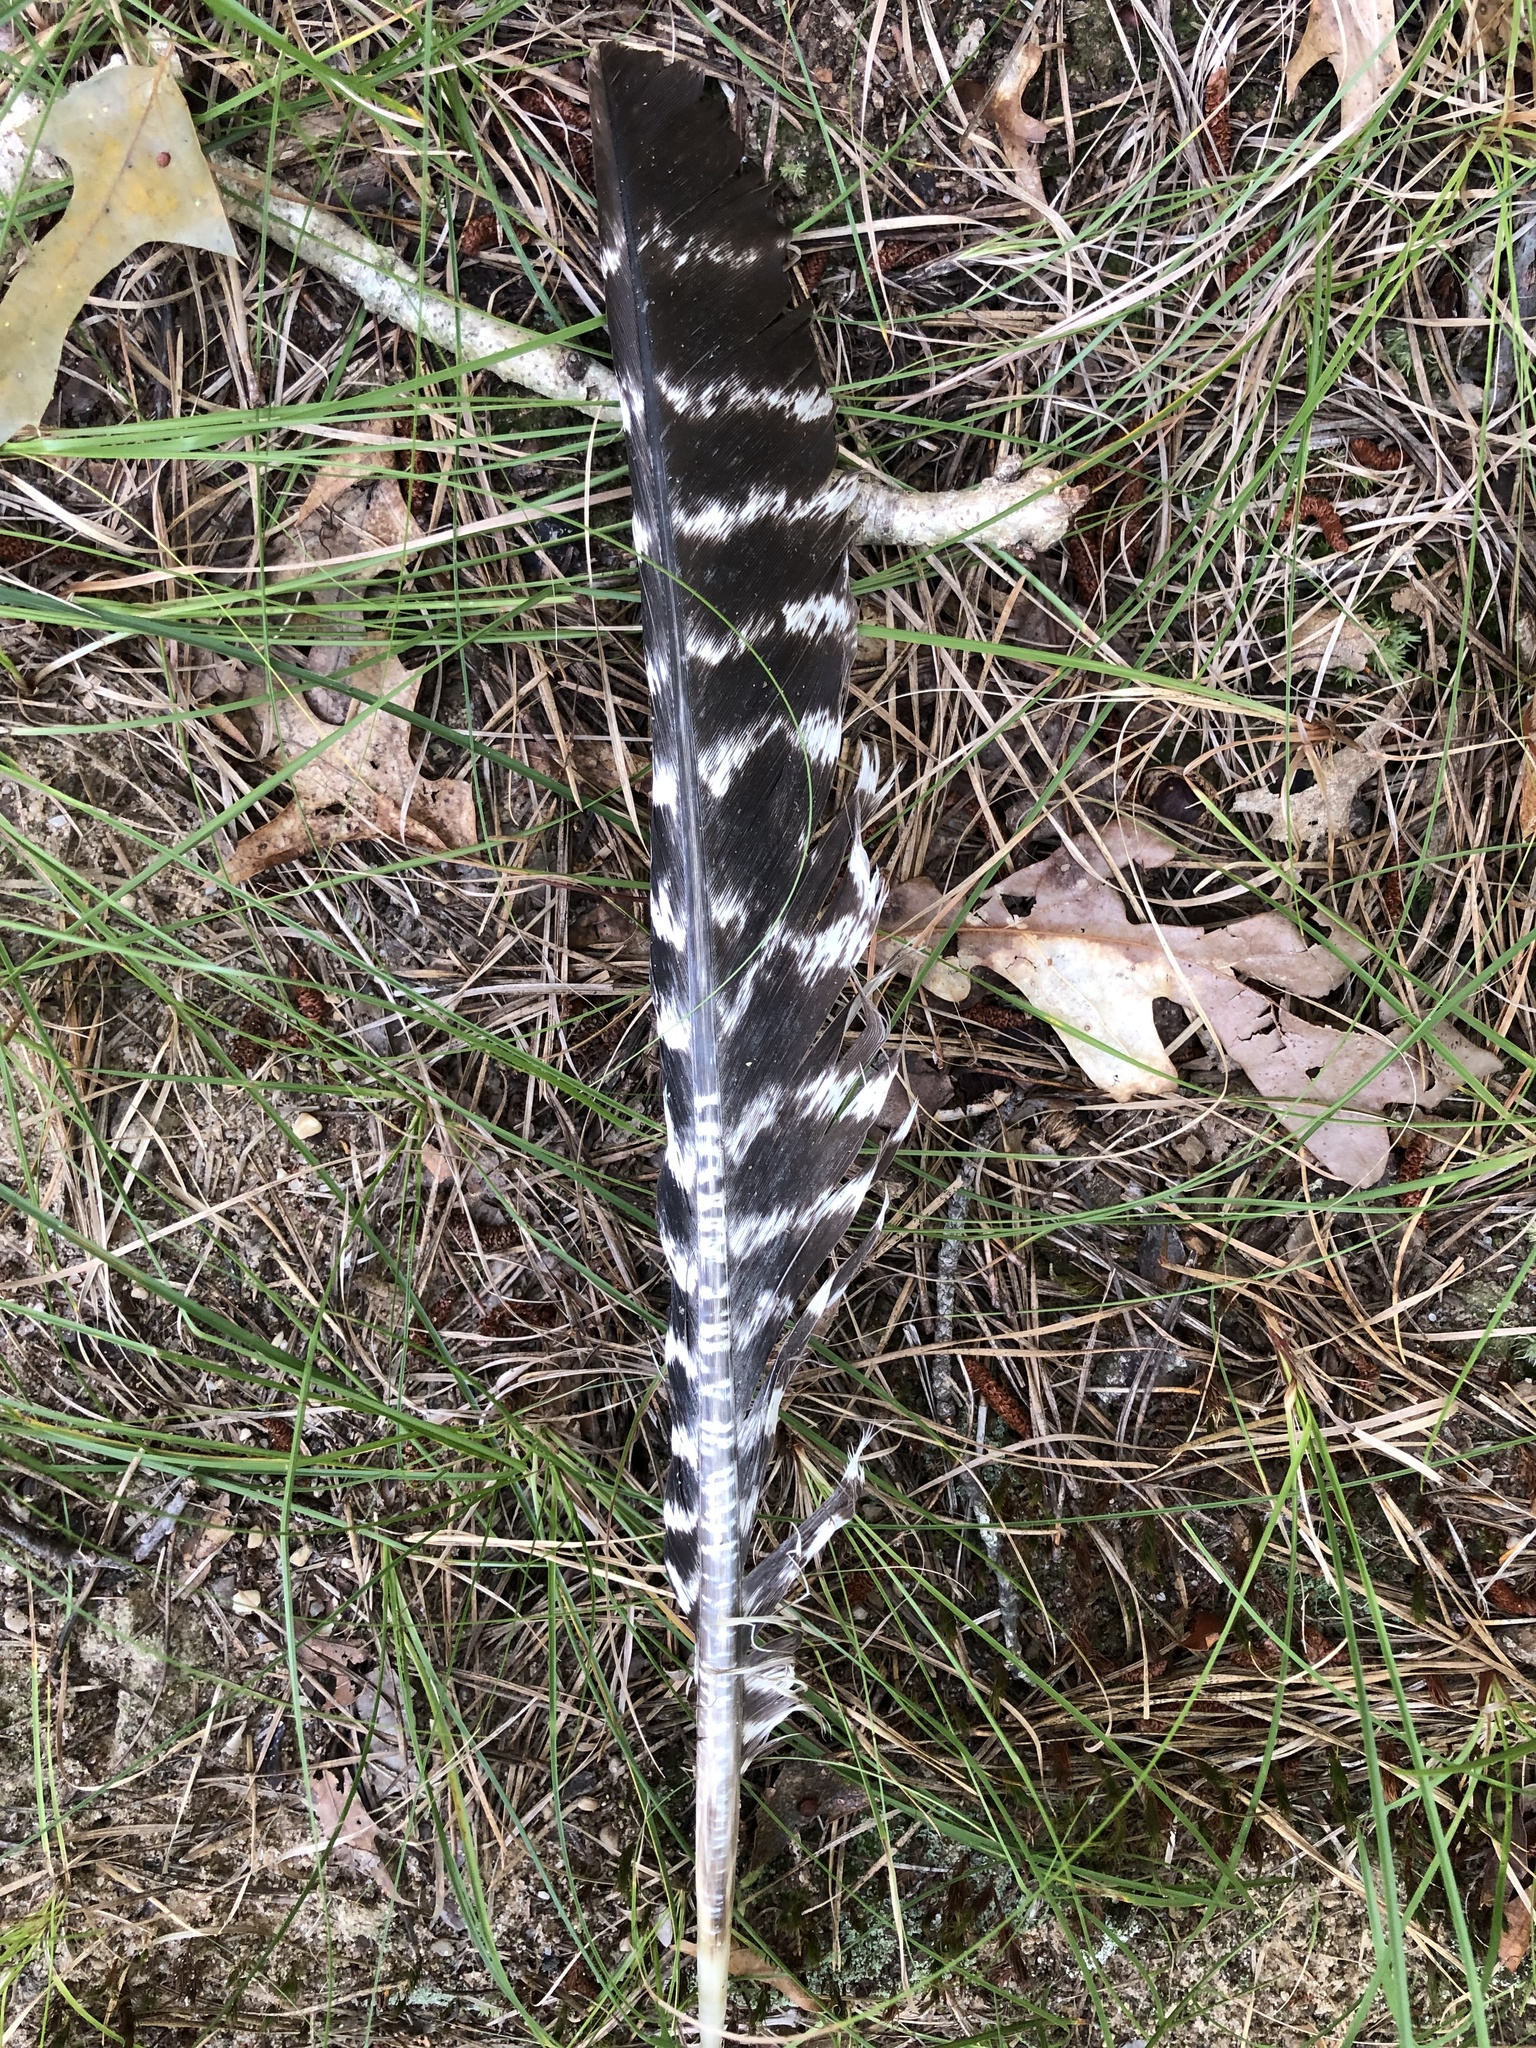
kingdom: Animalia
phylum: Chordata
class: Aves
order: Galliformes
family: Phasianidae
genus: Meleagris
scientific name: Meleagris gallopavo
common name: Wild turkey
